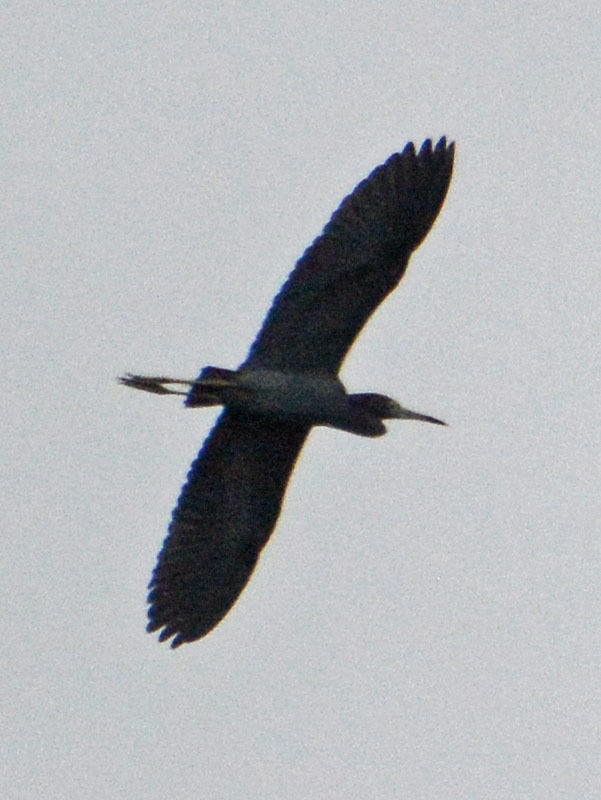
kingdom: Animalia
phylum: Chordata
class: Aves
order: Pelecaniformes
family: Ardeidae
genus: Ardea
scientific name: Ardea herodias
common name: Great blue heron
